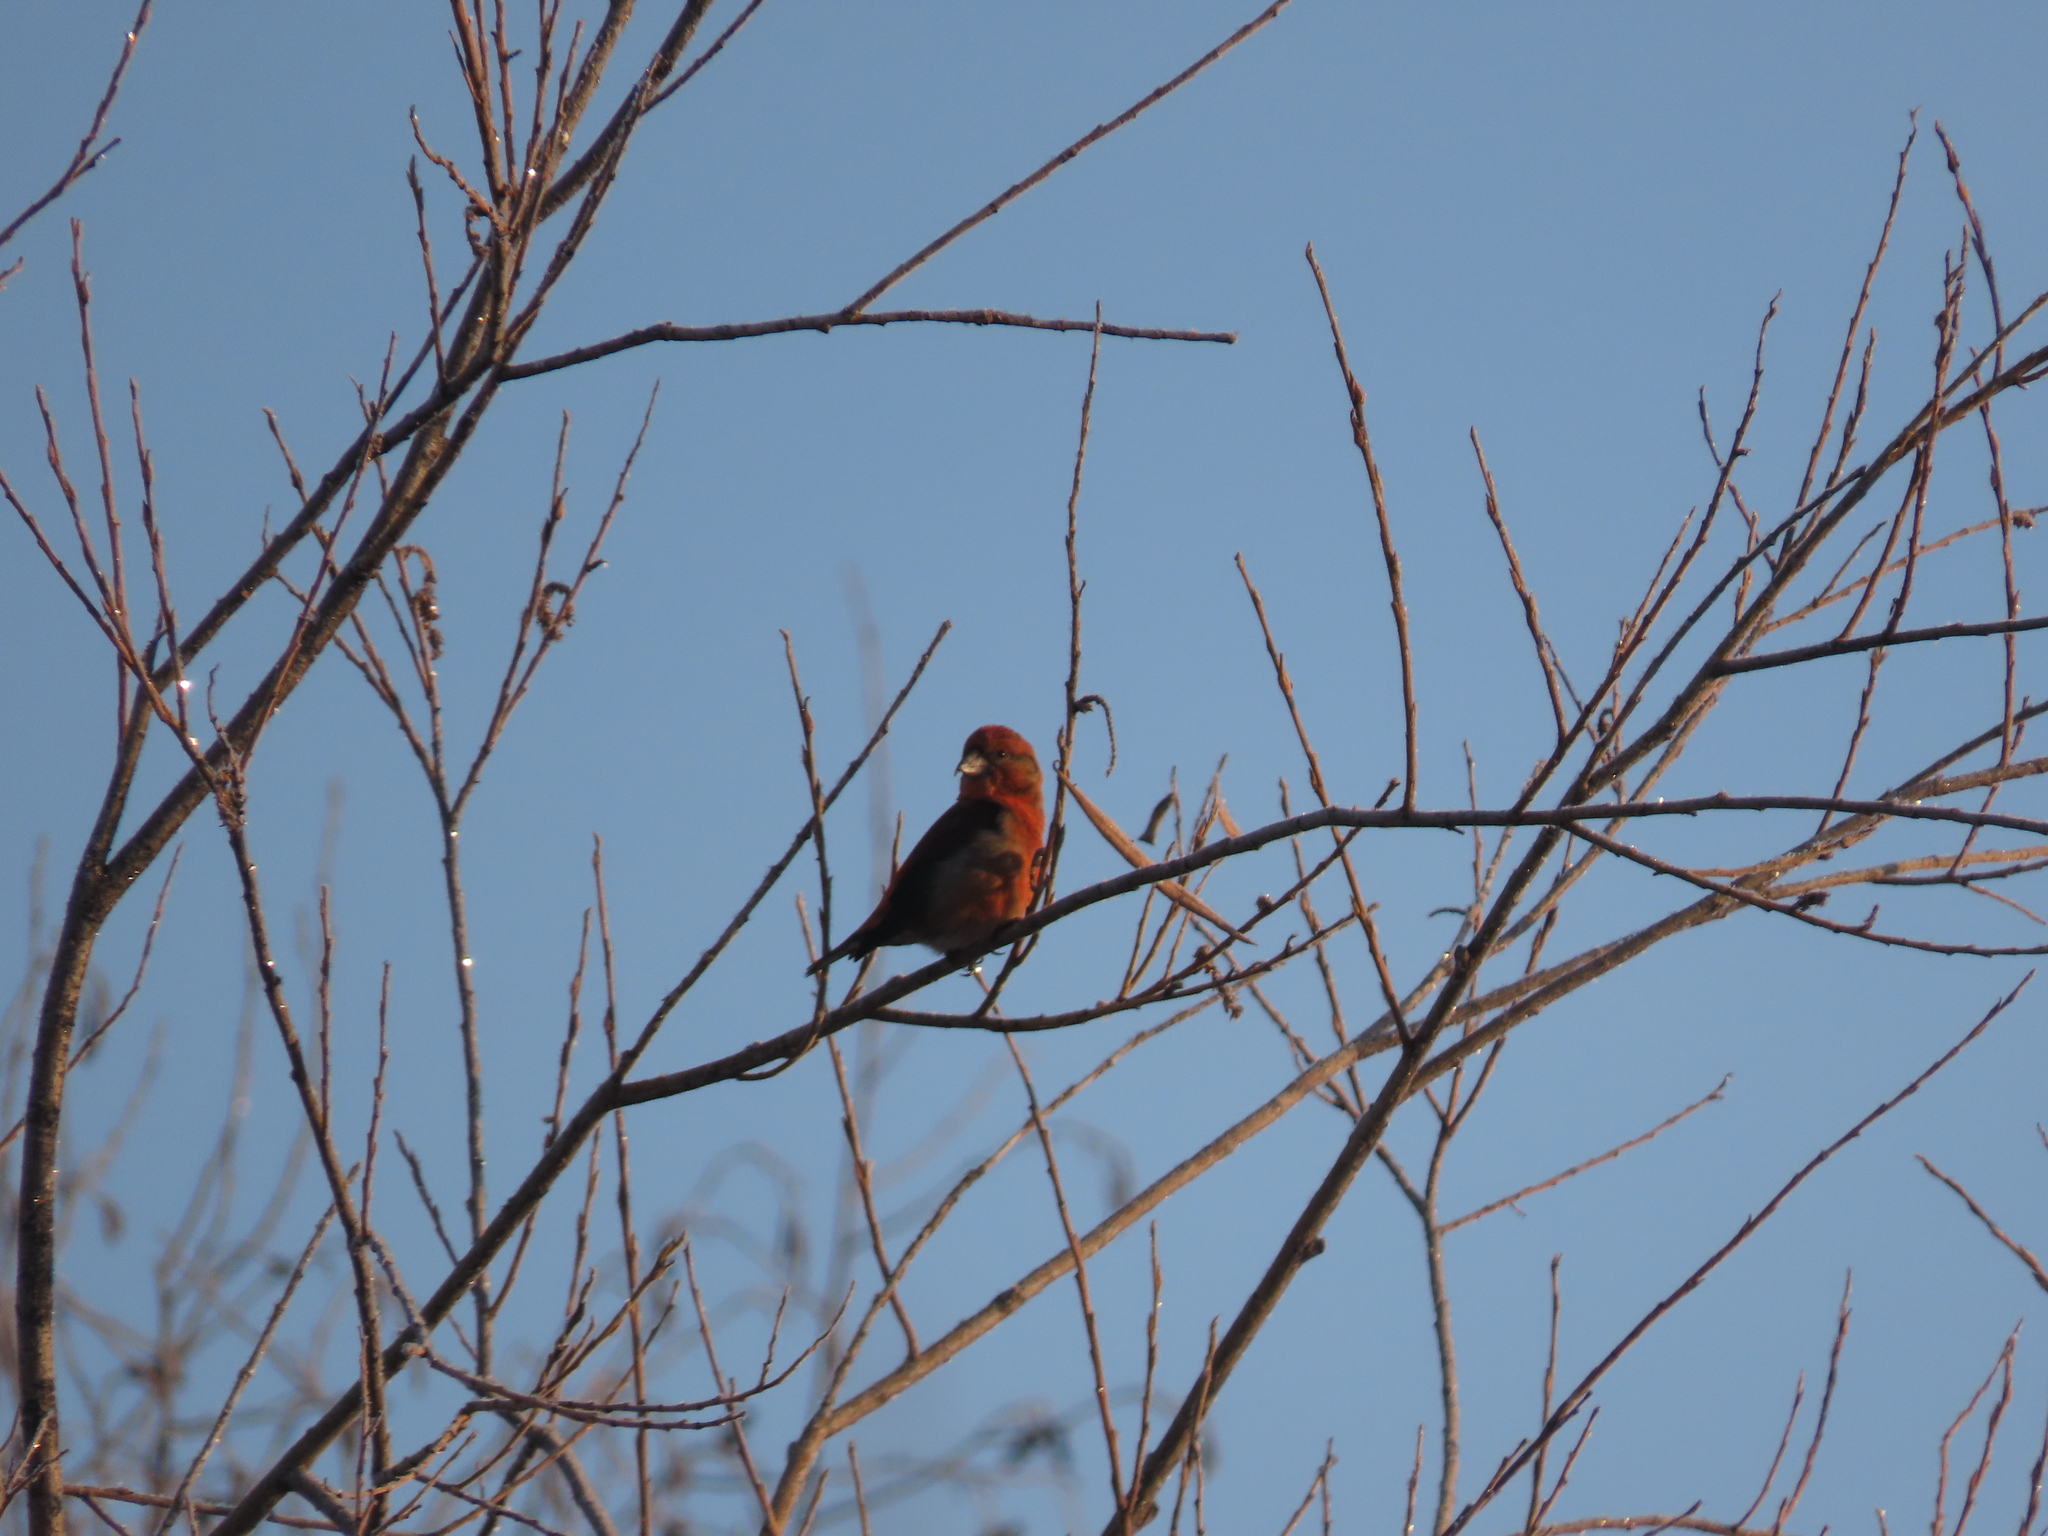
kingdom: Animalia
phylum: Chordata
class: Aves
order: Passeriformes
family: Fringillidae
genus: Loxia
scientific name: Loxia curvirostra
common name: Red crossbill
